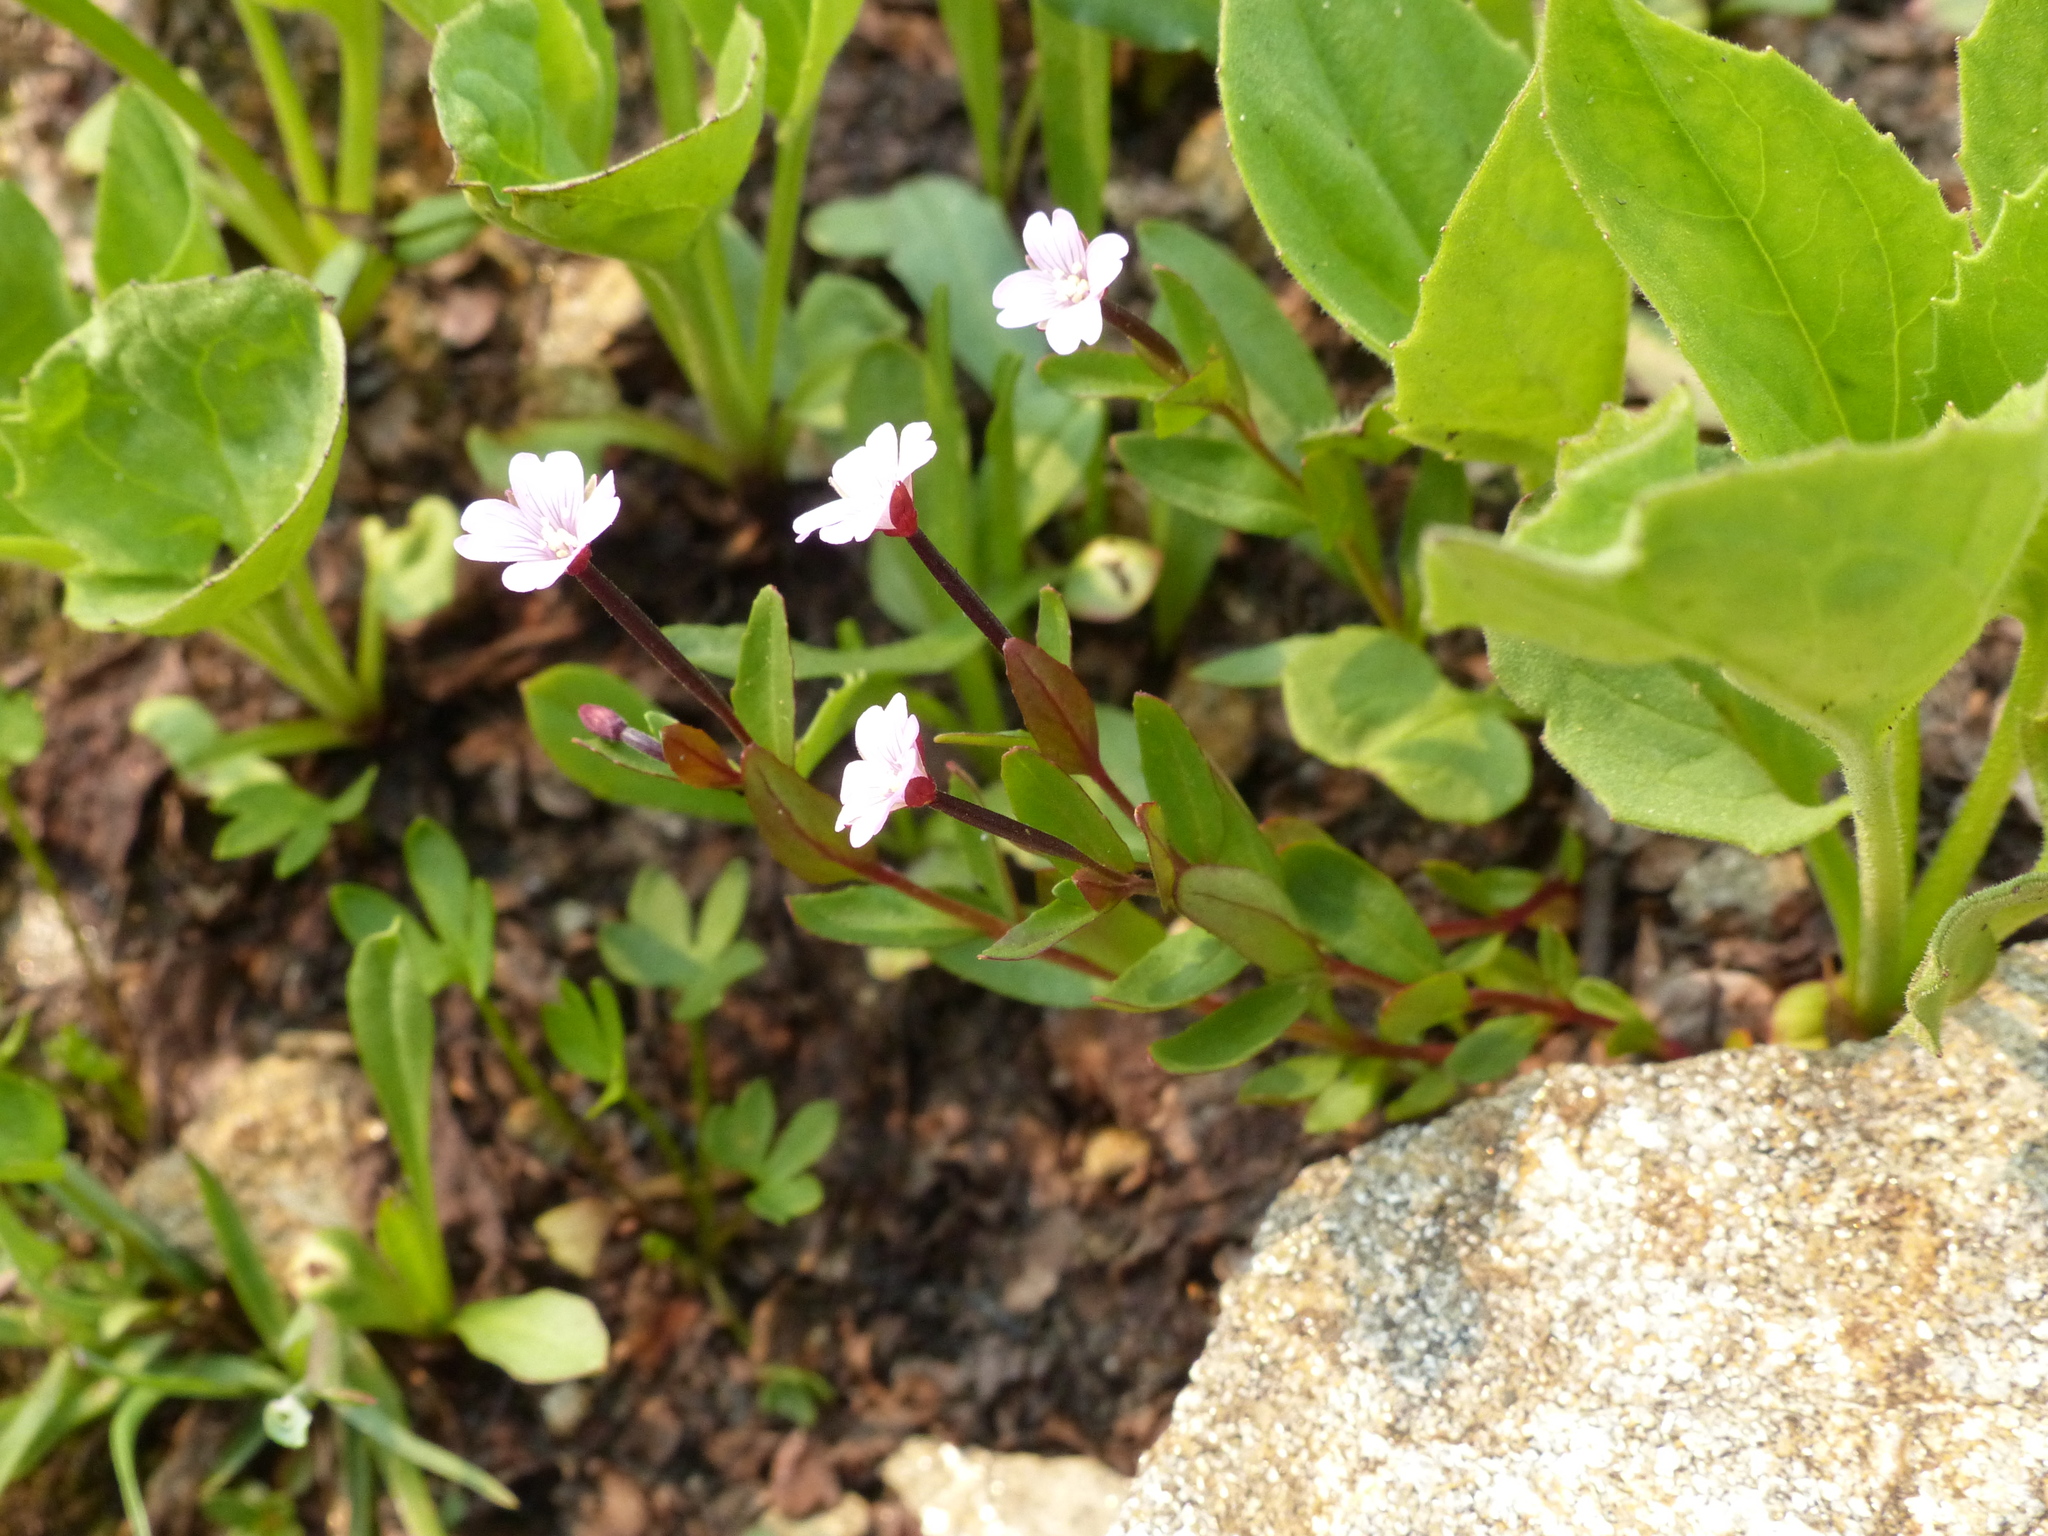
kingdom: Plantae
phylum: Tracheophyta
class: Magnoliopsida
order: Myrtales
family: Onagraceae
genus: Epilobium
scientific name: Epilobium anagallidifolium
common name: Alpine willowherb
